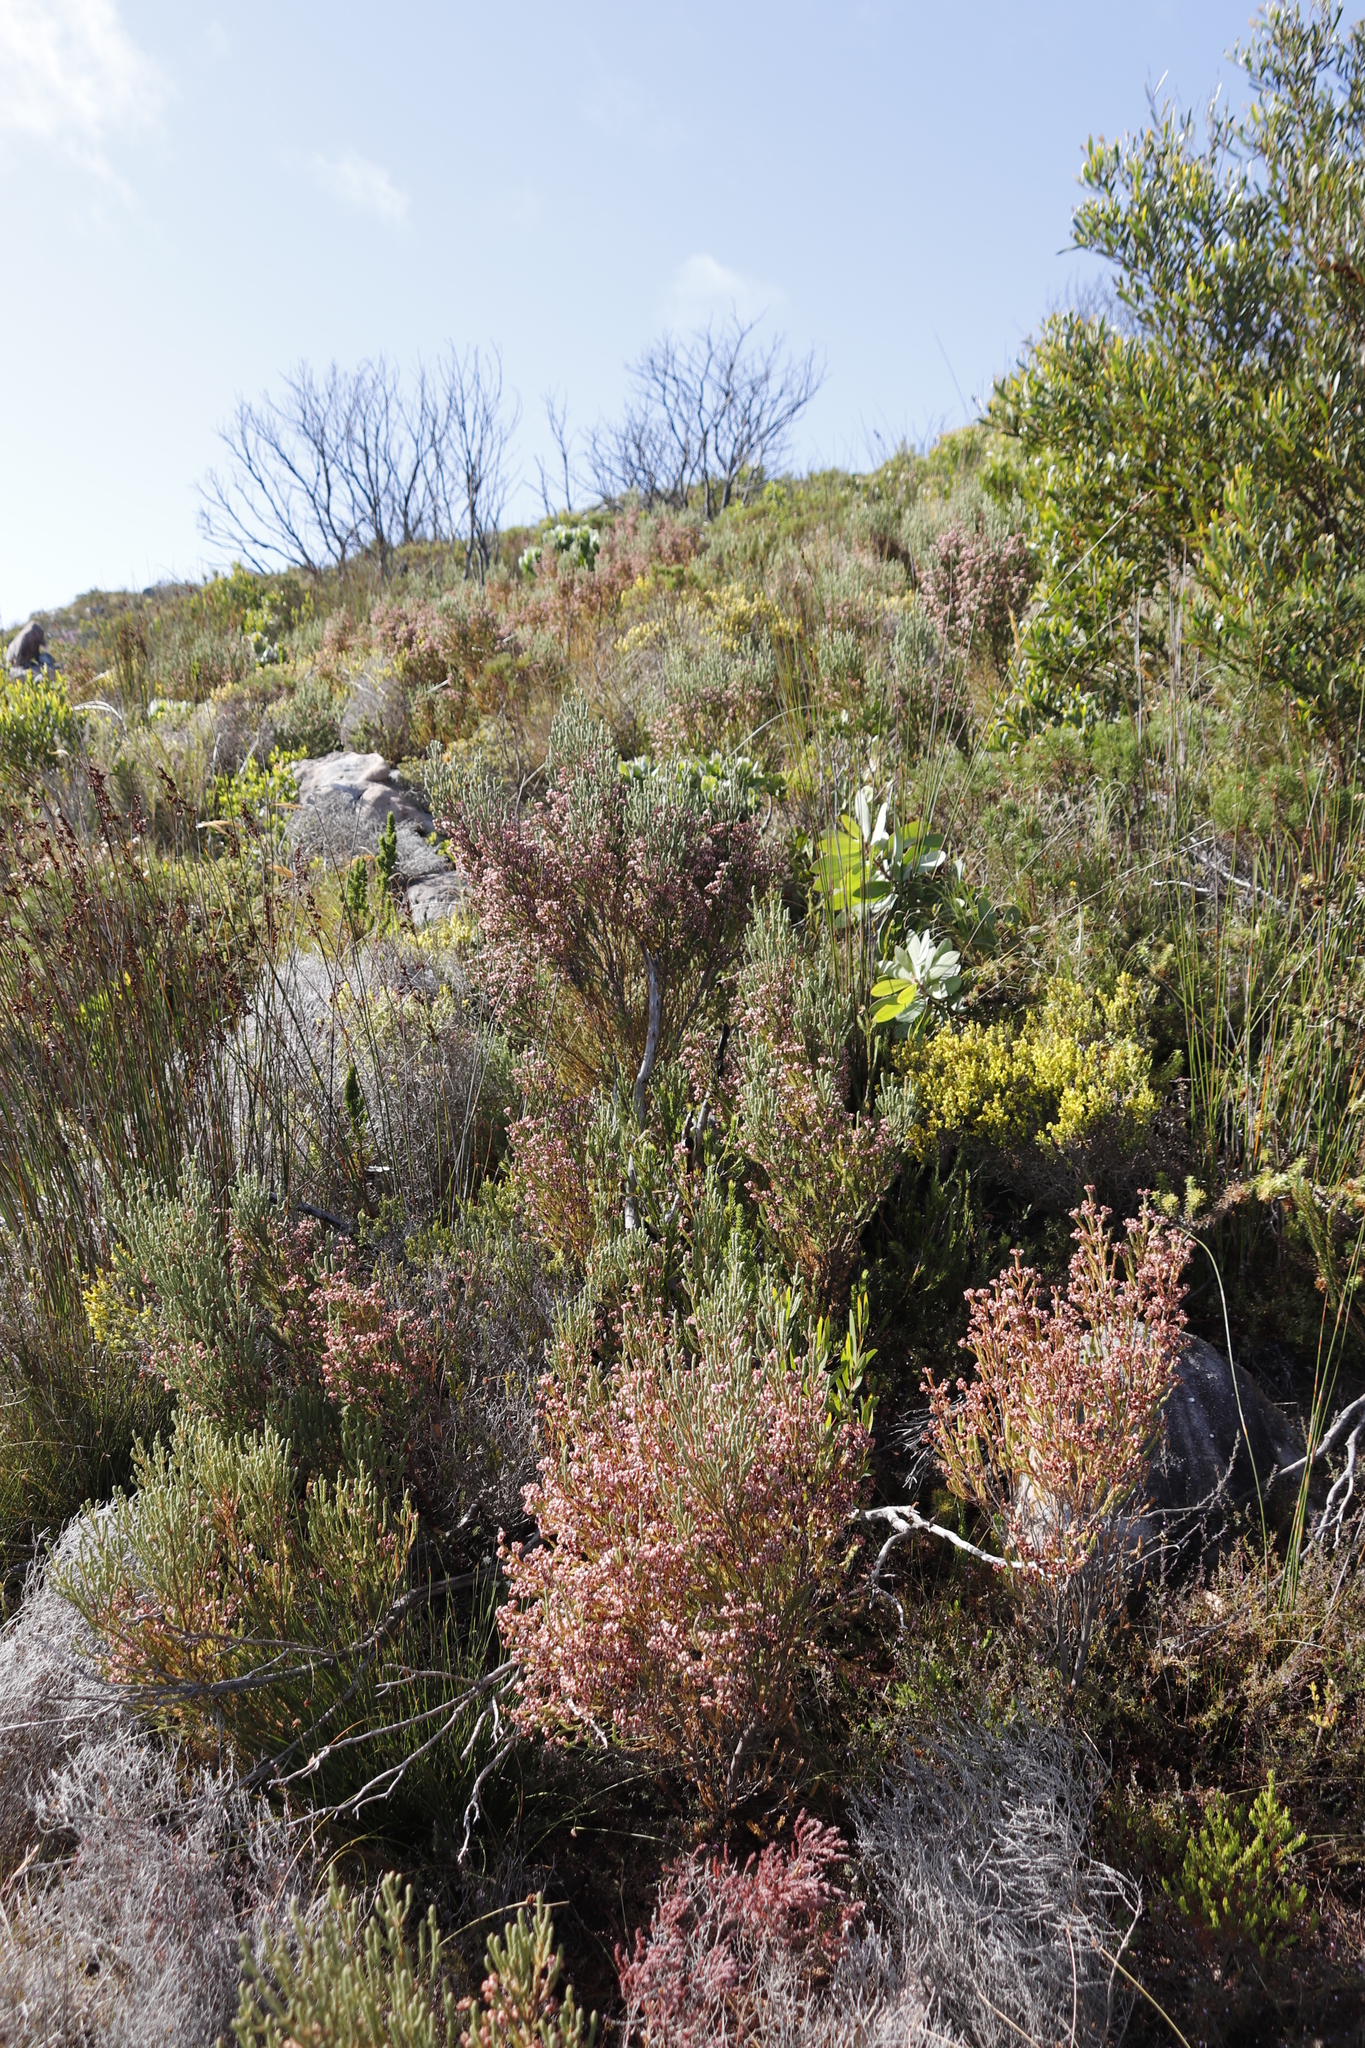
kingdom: Plantae
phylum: Tracheophyta
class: Magnoliopsida
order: Ericales
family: Ericaceae
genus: Erica
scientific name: Erica baccans
